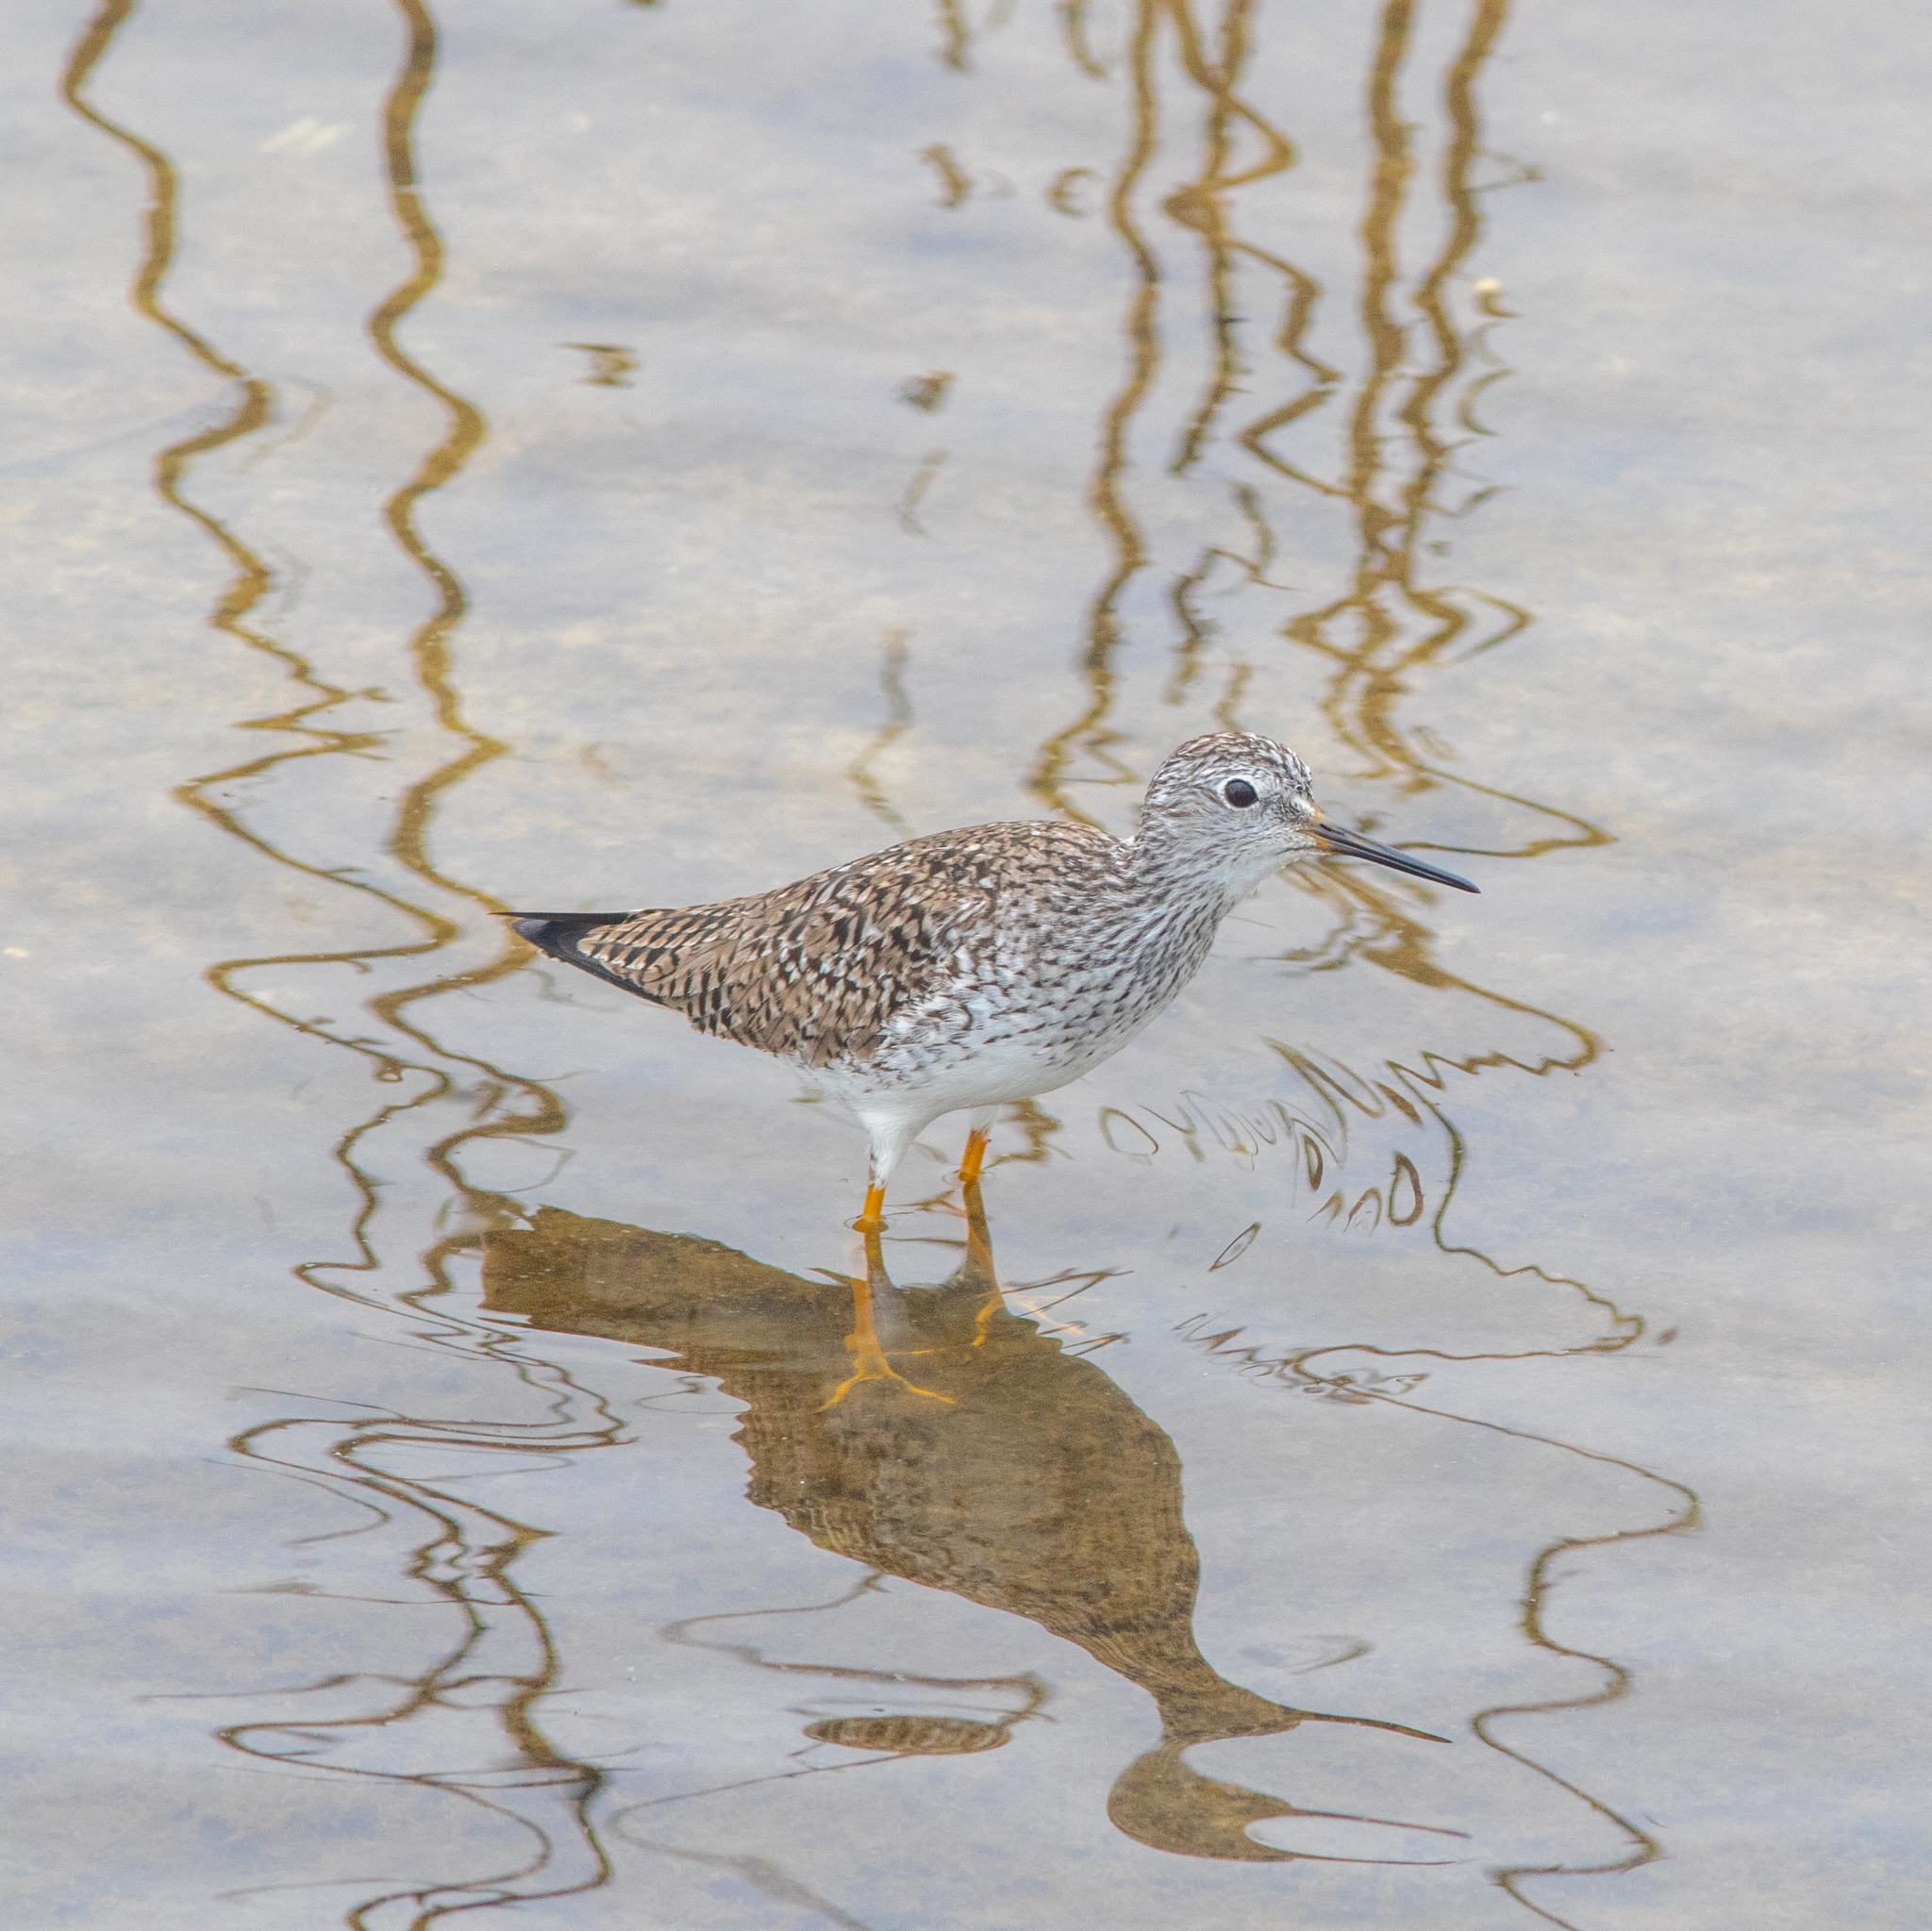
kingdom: Animalia
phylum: Chordata
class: Aves
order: Charadriiformes
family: Scolopacidae
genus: Tringa
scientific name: Tringa flavipes
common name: Lesser yellowlegs
